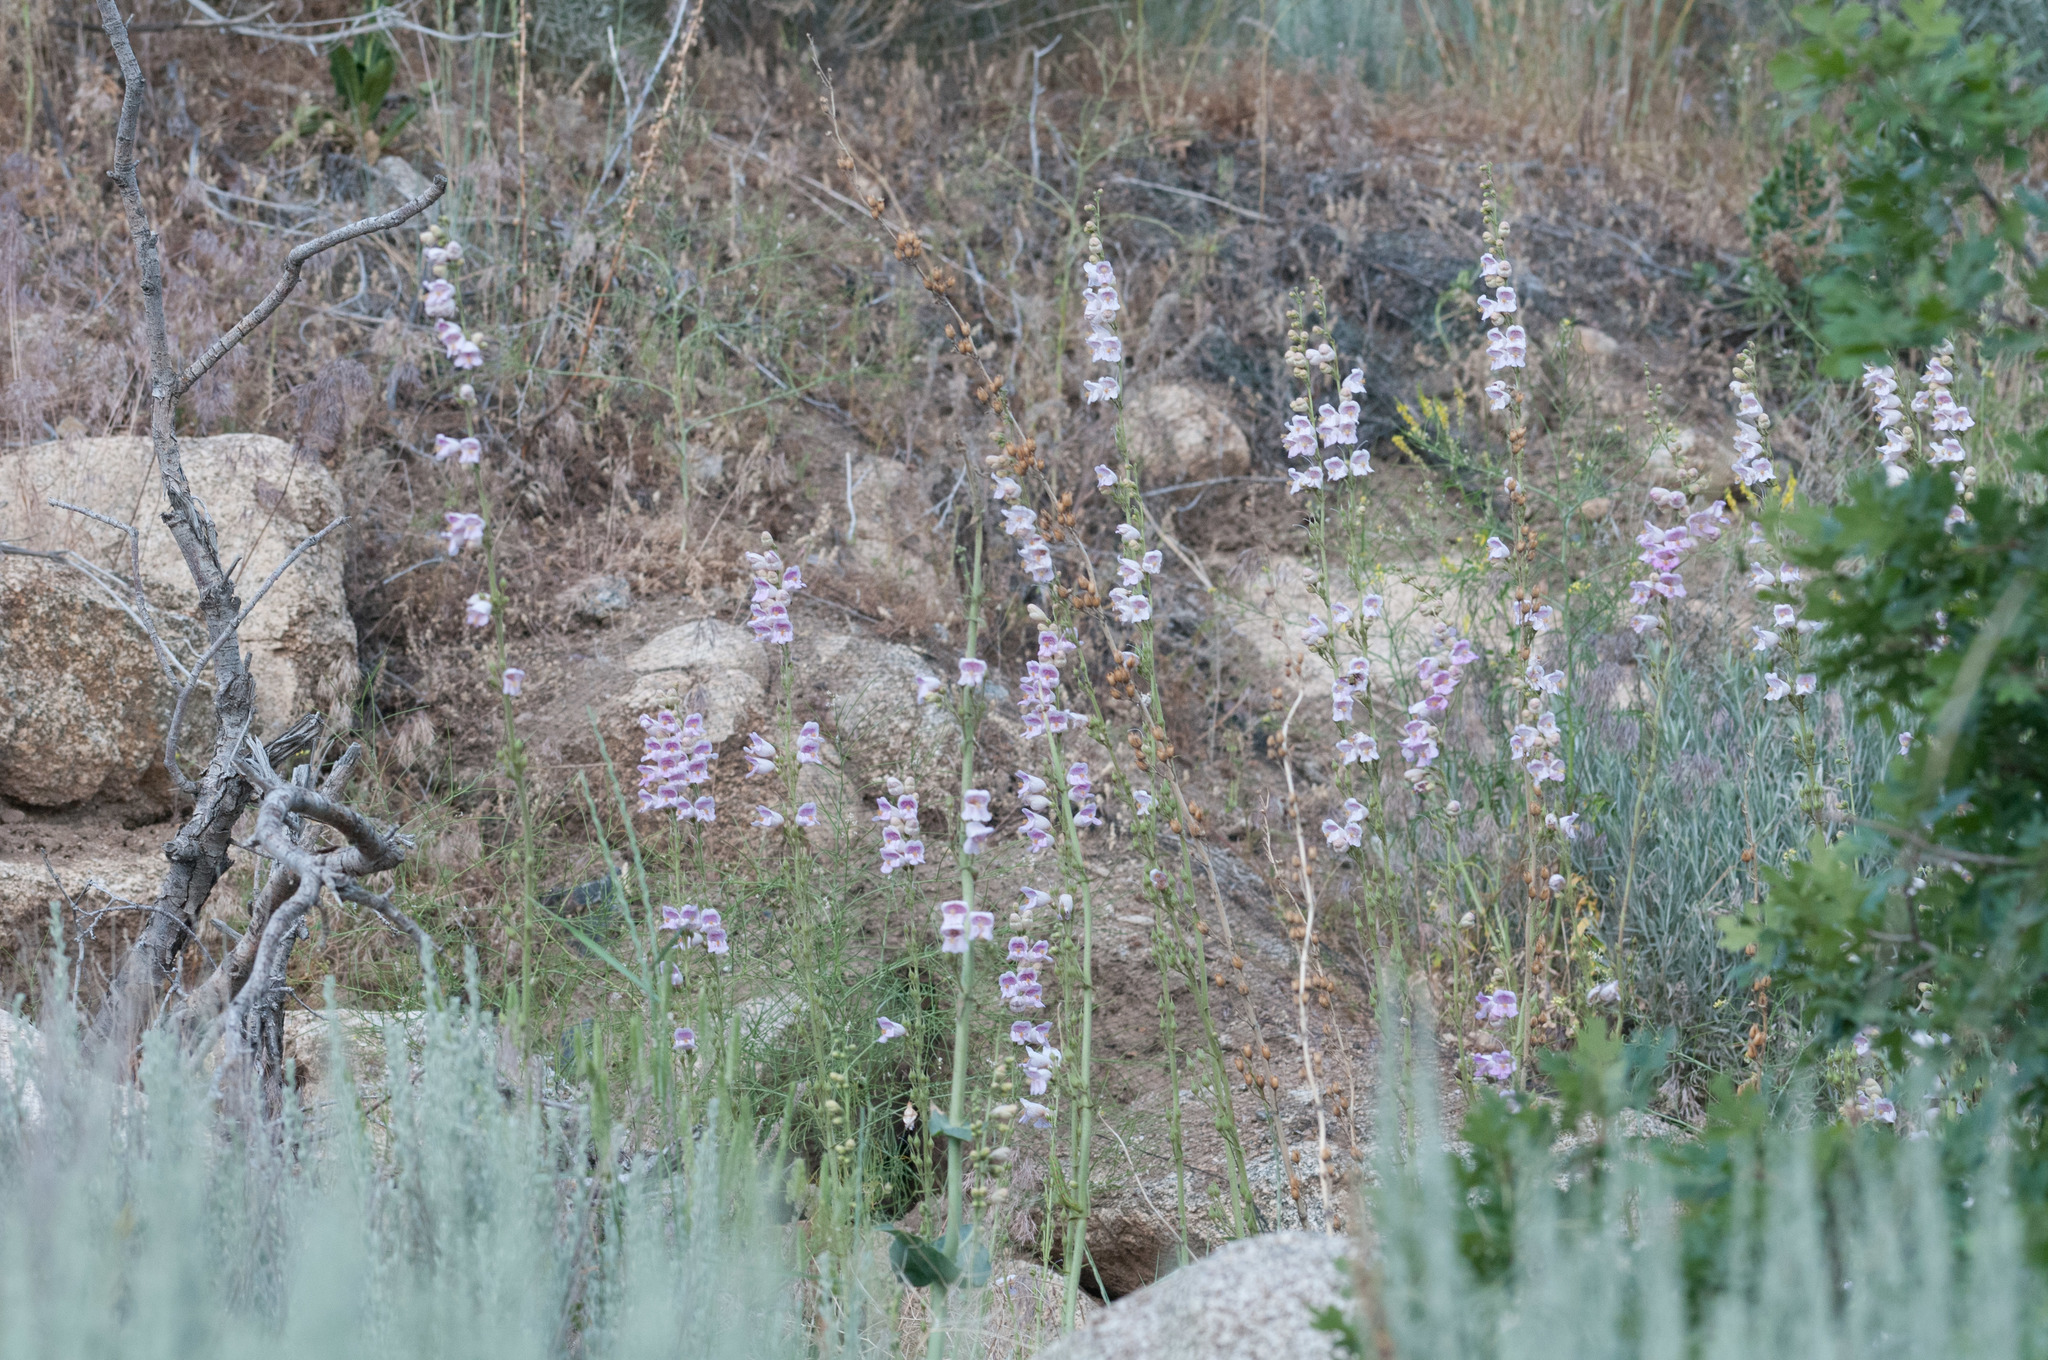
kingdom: Plantae
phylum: Tracheophyta
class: Magnoliopsida
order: Lamiales
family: Plantaginaceae
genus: Penstemon
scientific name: Penstemon palmeri
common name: Palmer penstemon
